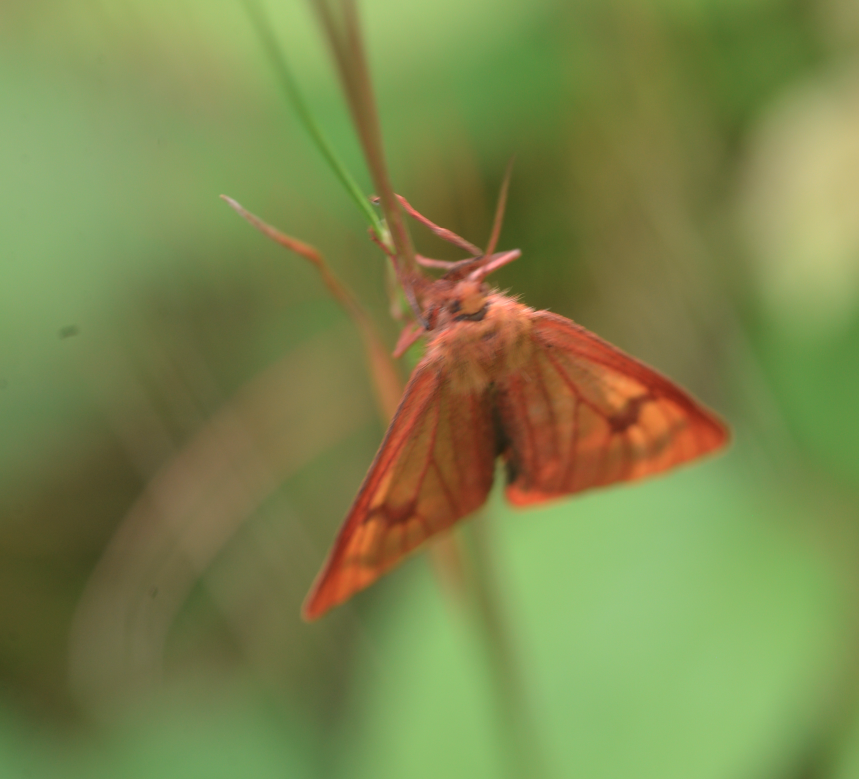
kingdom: Animalia
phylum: Arthropoda
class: Insecta
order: Lepidoptera
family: Erebidae
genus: Diacrisia
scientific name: Diacrisia sannio
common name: Clouded buff
